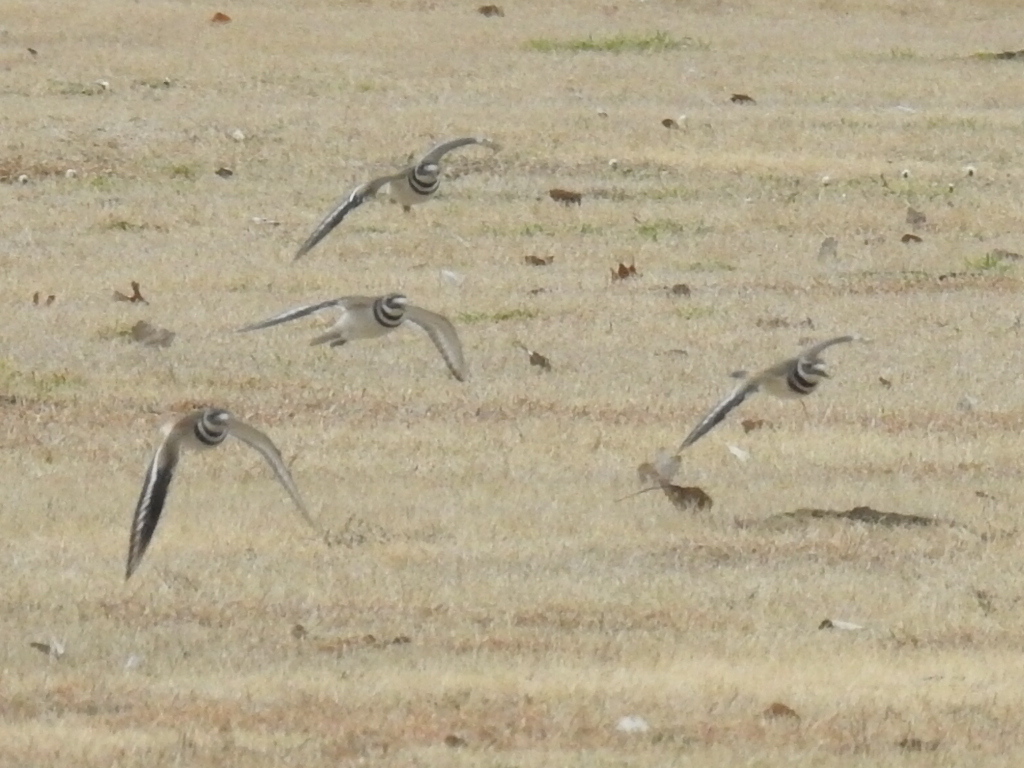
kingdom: Animalia
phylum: Chordata
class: Aves
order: Charadriiformes
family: Charadriidae
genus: Charadrius
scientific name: Charadrius vociferus
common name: Killdeer
